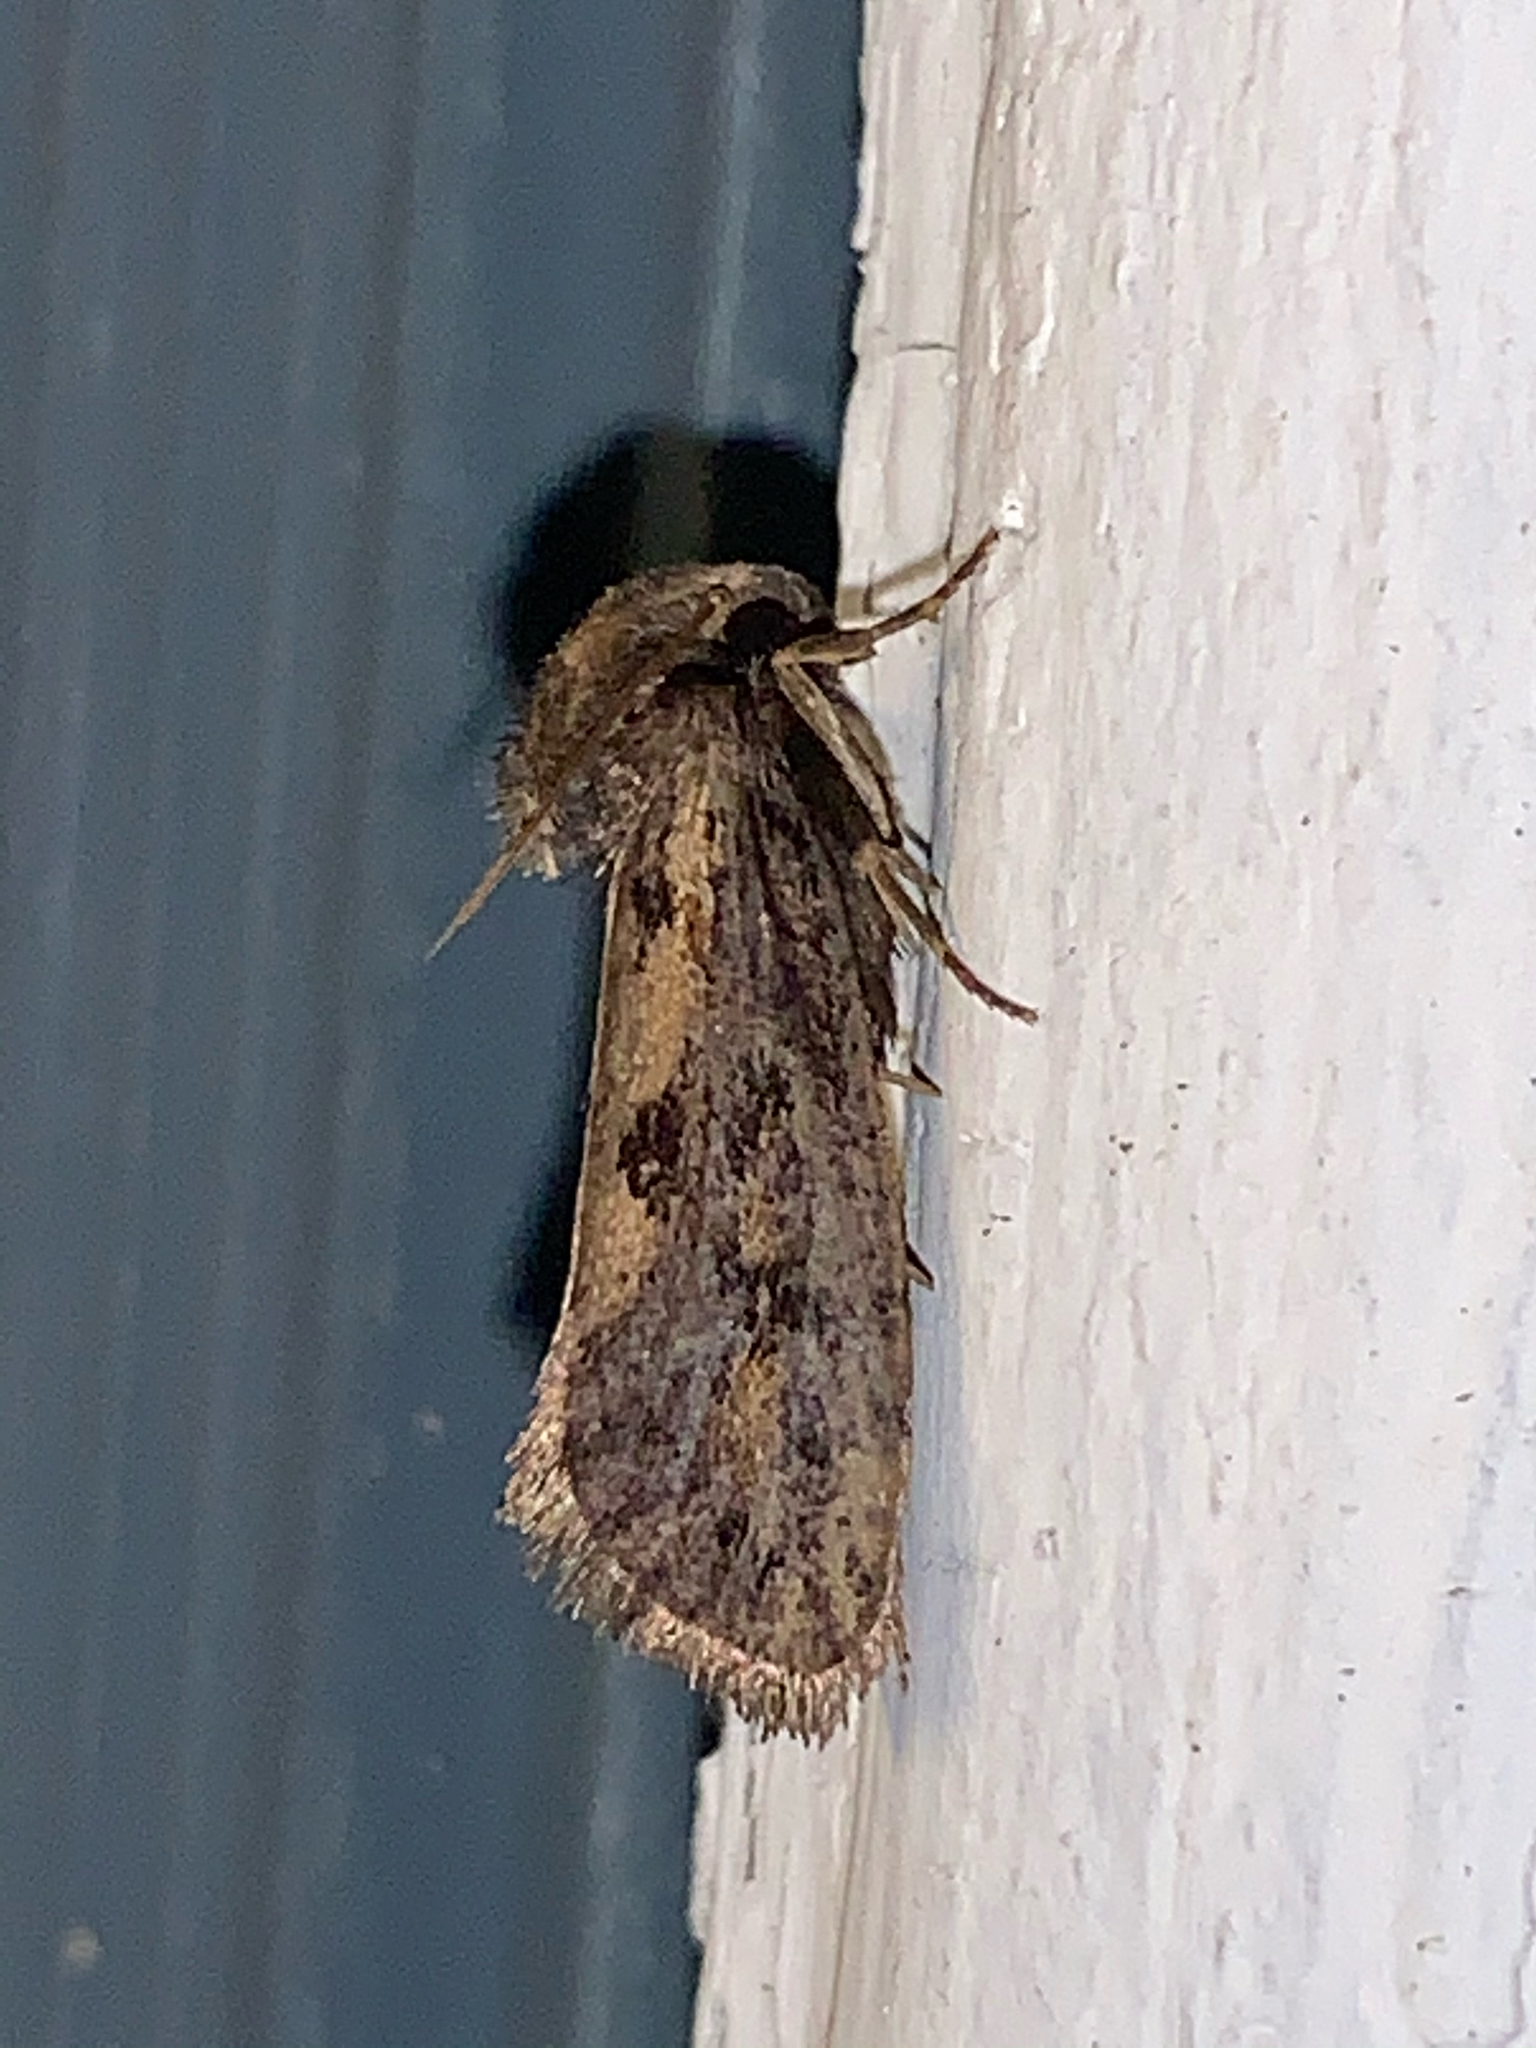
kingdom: Animalia
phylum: Arthropoda
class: Insecta
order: Lepidoptera
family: Tineidae
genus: Acrolophus
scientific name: Acrolophus popeanella
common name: Clemens' grass tubeworm moth
